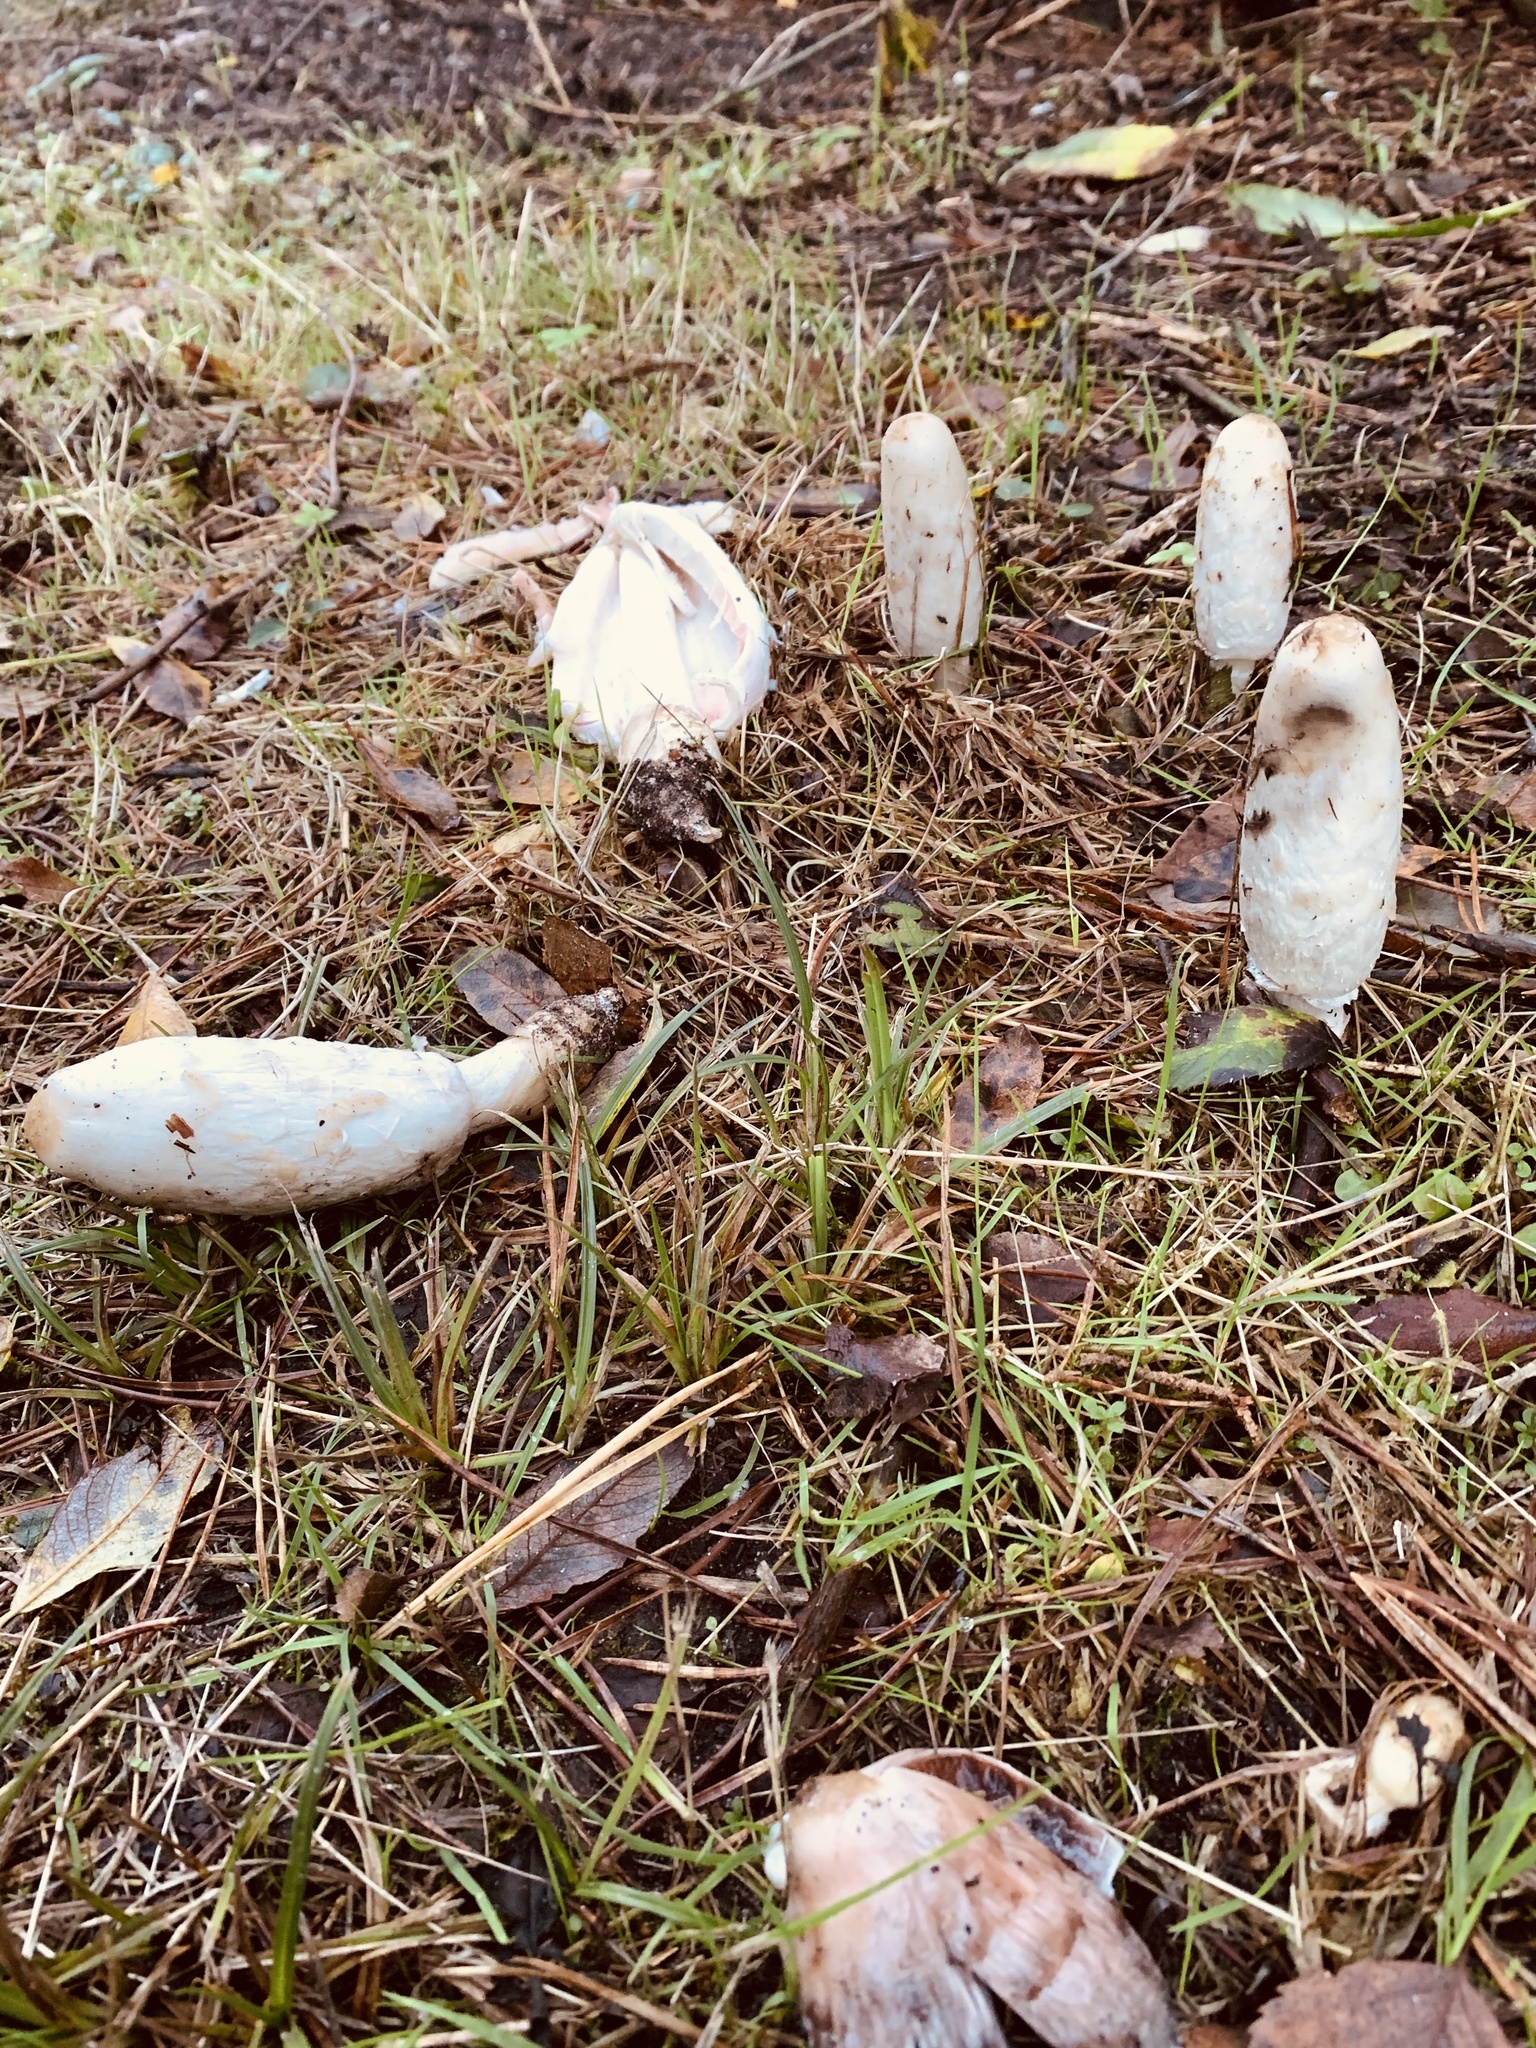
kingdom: Fungi
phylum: Basidiomycota
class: Agaricomycetes
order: Agaricales
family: Agaricaceae
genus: Coprinus
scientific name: Coprinus comatus
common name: Lawyer's wig
